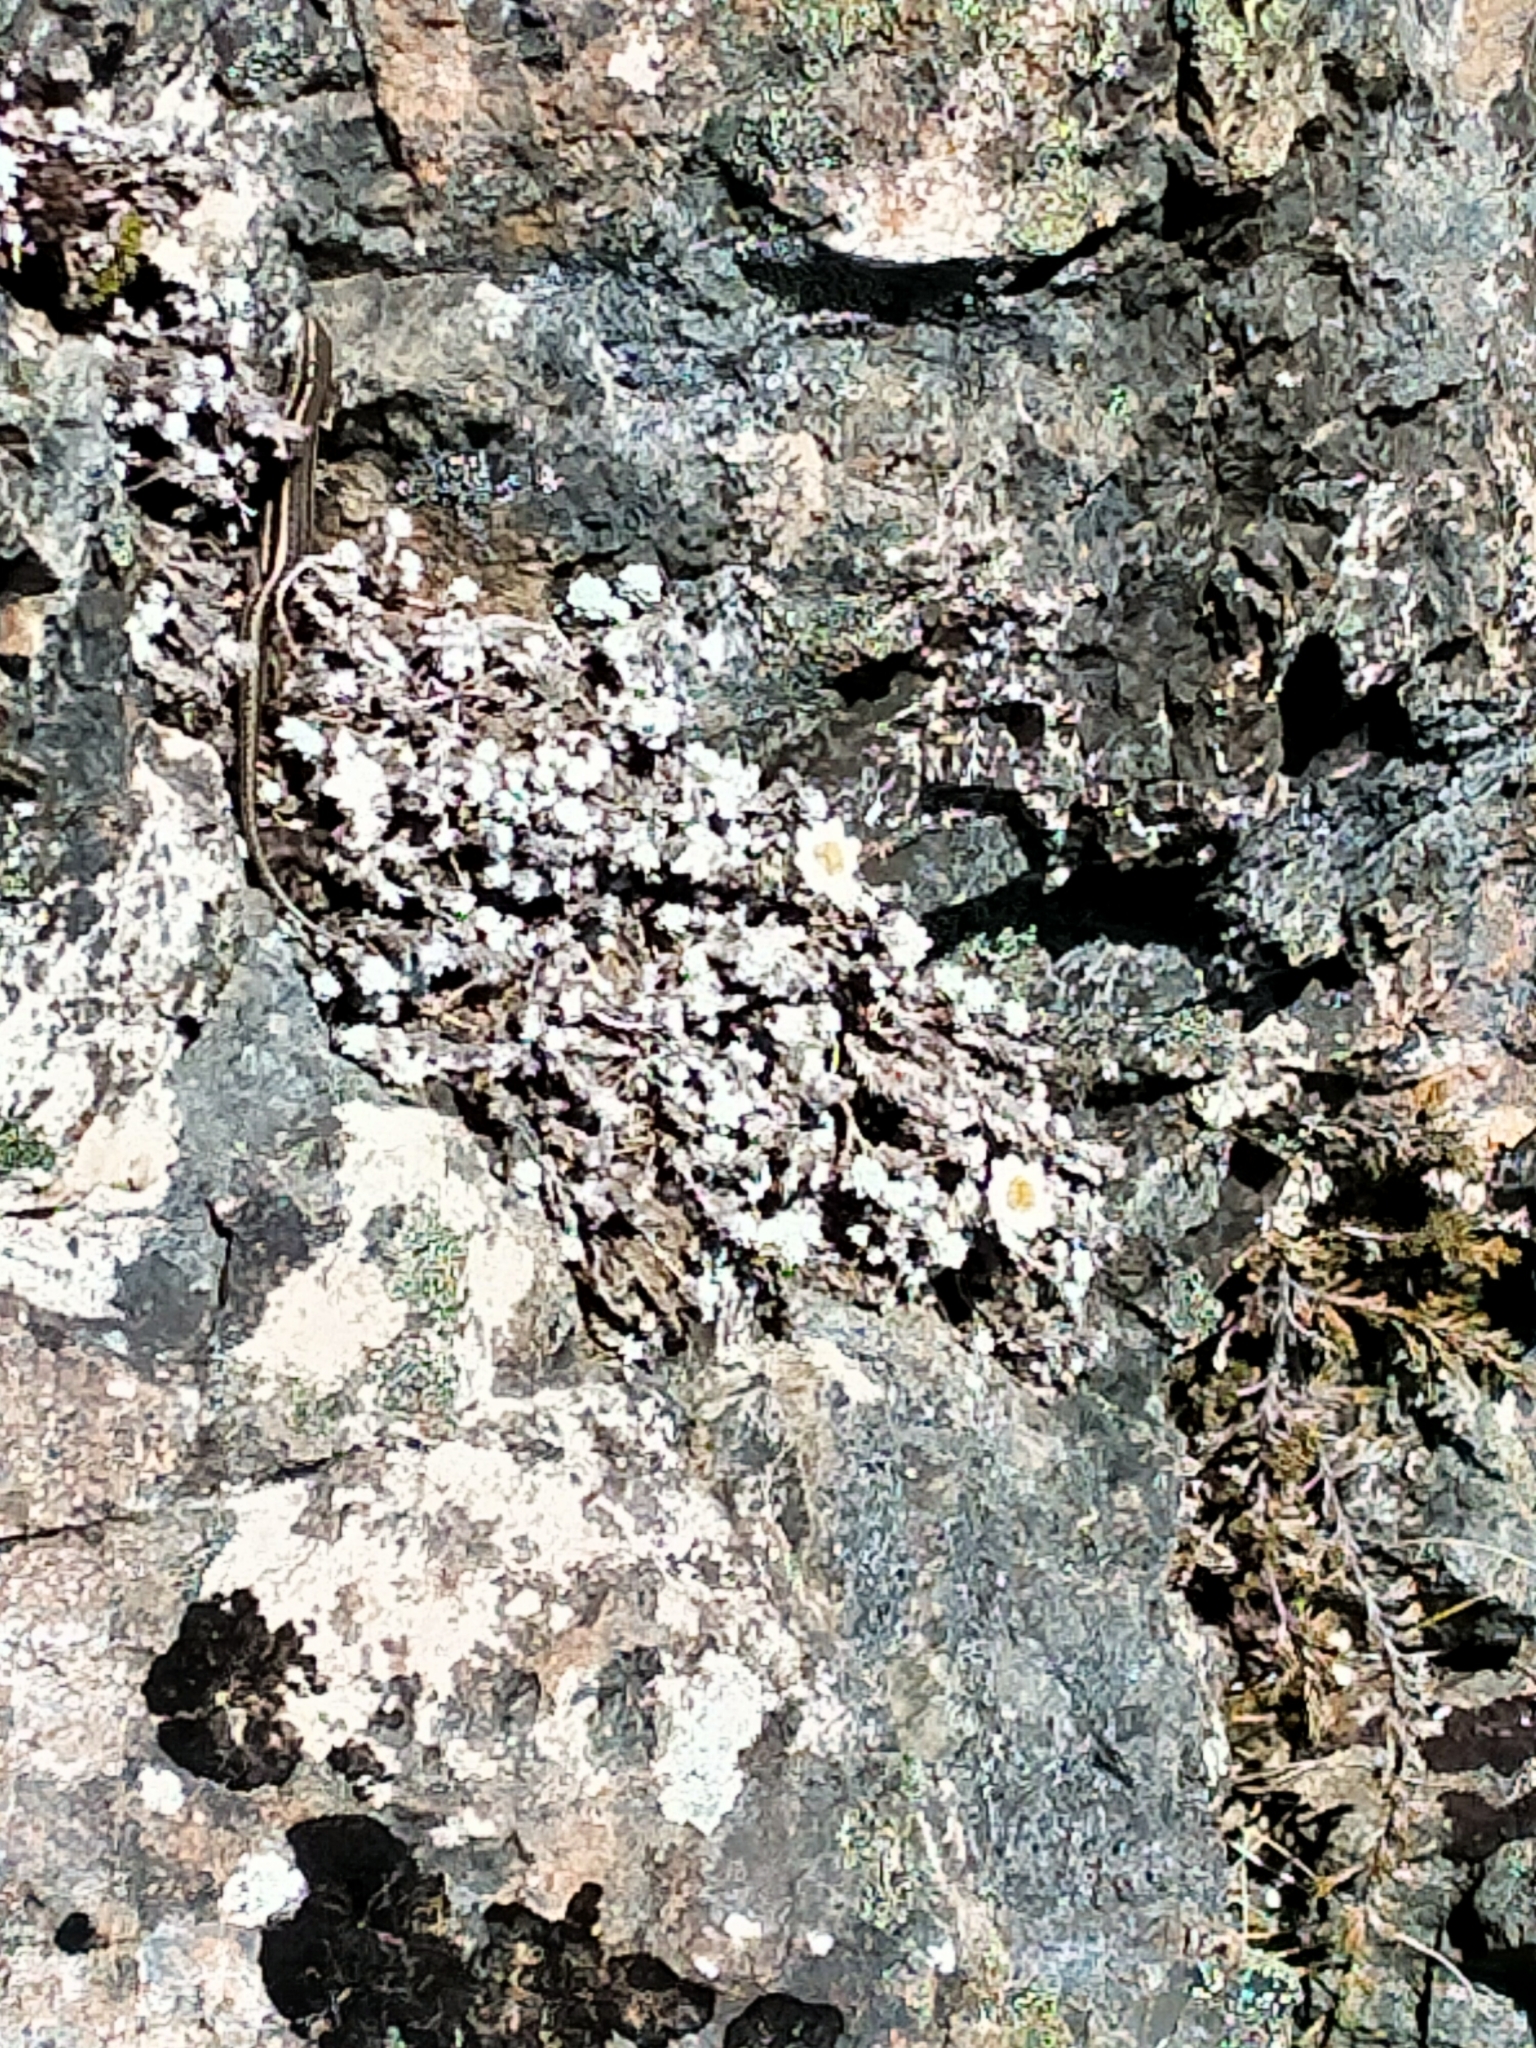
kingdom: Animalia
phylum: Chordata
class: Squamata
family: Scincidae
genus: Oligosoma
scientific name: Oligosoma maccanni
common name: Mccann’s skink
